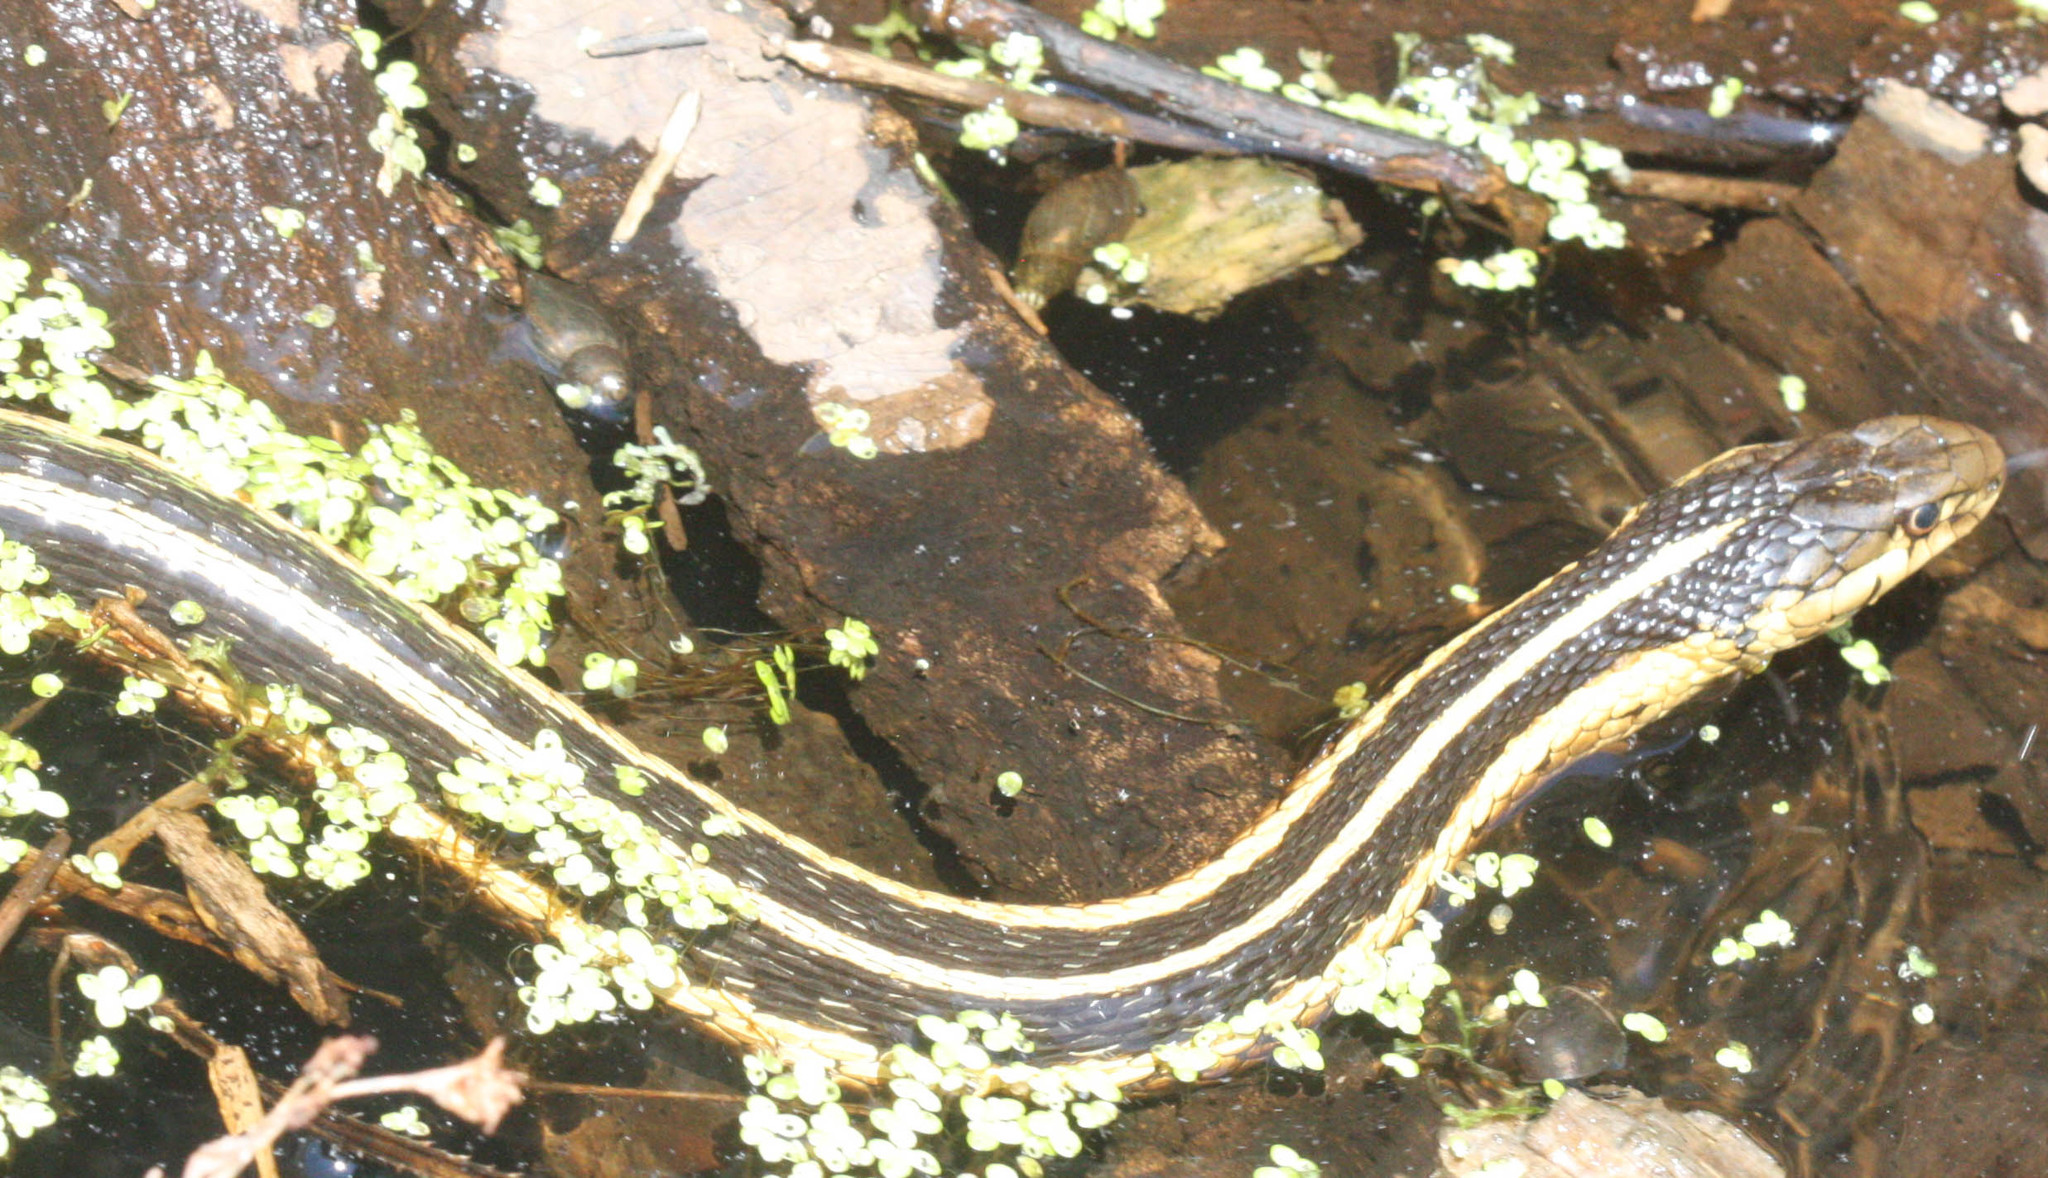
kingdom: Animalia
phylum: Chordata
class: Squamata
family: Colubridae
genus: Thamnophis
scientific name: Thamnophis sirtalis
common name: Common garter snake
